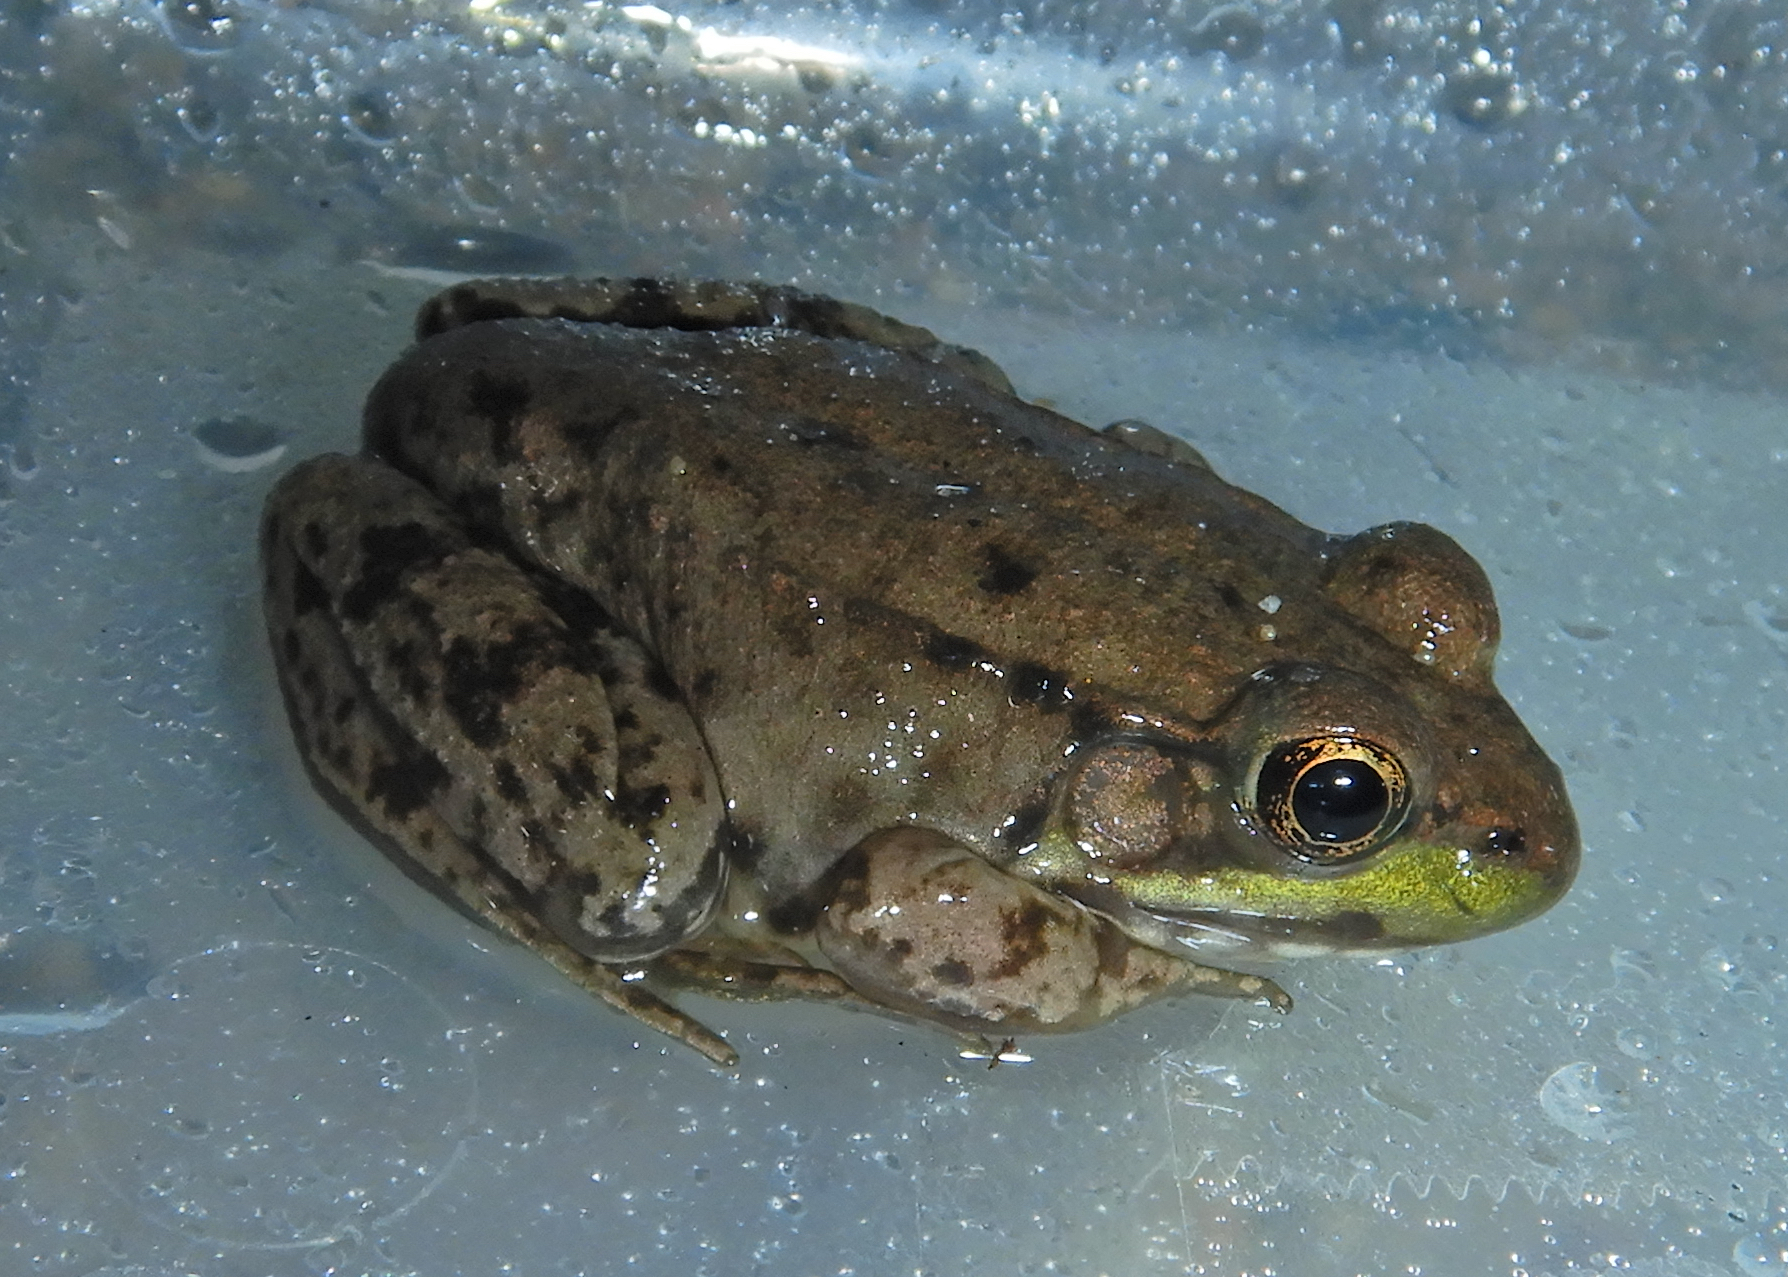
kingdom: Animalia
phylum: Chordata
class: Amphibia
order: Anura
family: Ranidae
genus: Lithobates
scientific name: Lithobates clamitans
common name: Green frog
